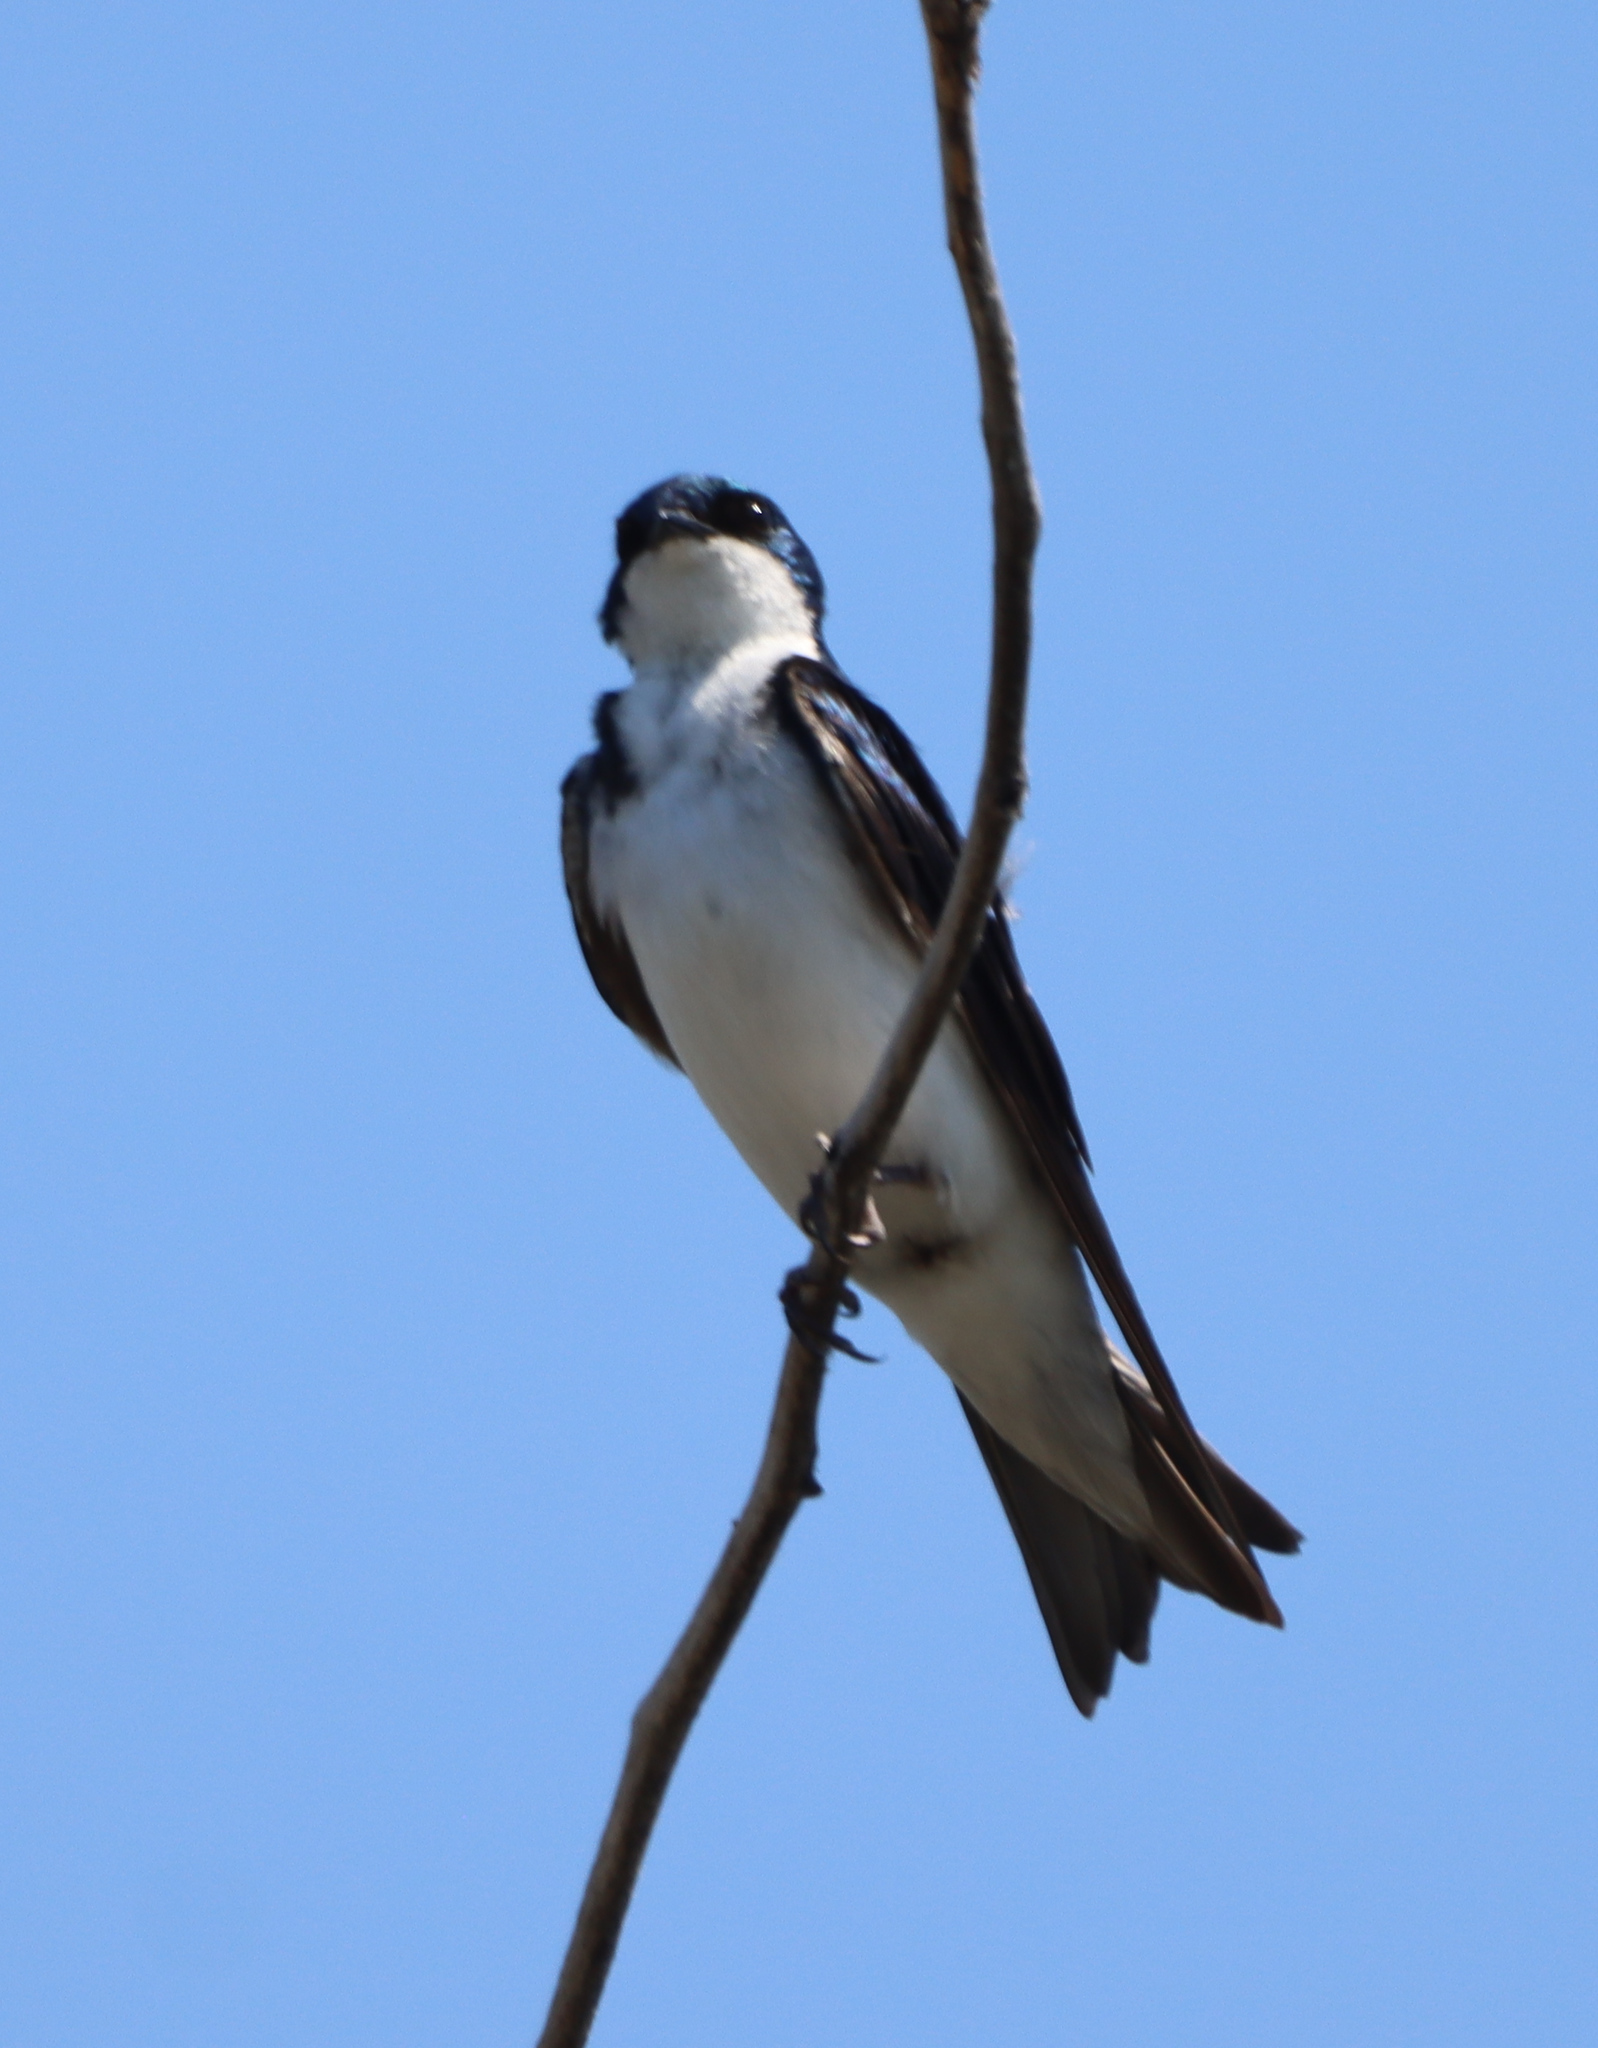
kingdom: Animalia
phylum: Chordata
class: Aves
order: Passeriformes
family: Hirundinidae
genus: Tachycineta
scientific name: Tachycineta bicolor
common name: Tree swallow
